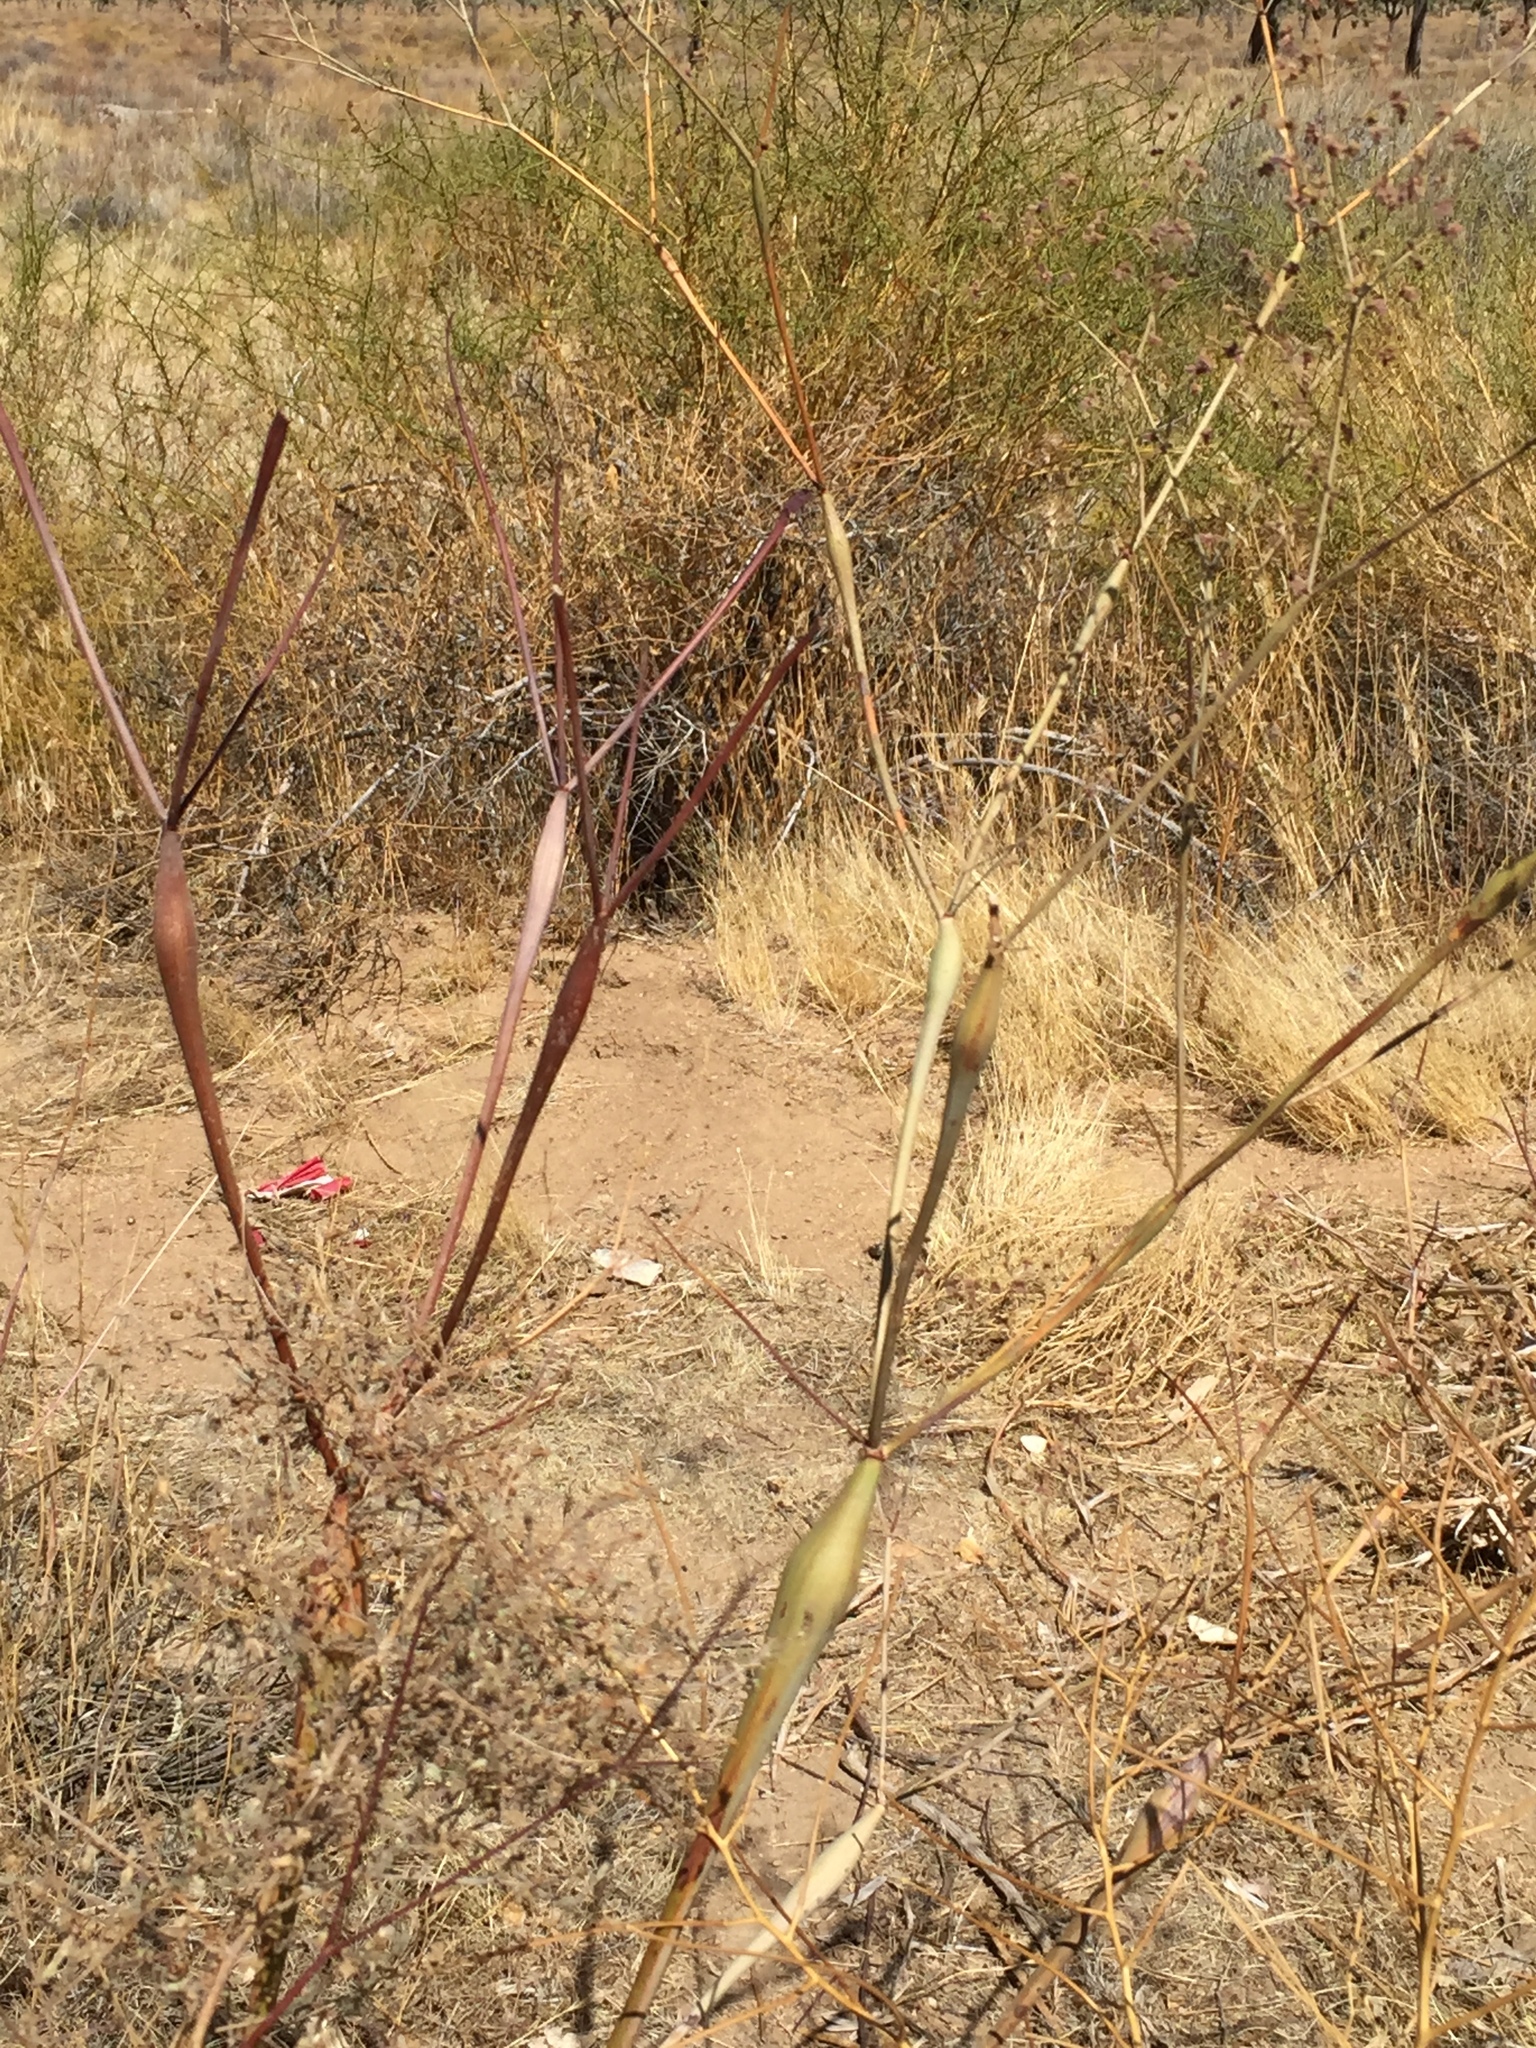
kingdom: Plantae
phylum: Tracheophyta
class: Magnoliopsida
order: Caryophyllales
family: Polygonaceae
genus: Eriogonum
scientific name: Eriogonum inflatum
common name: Desert trumpet
